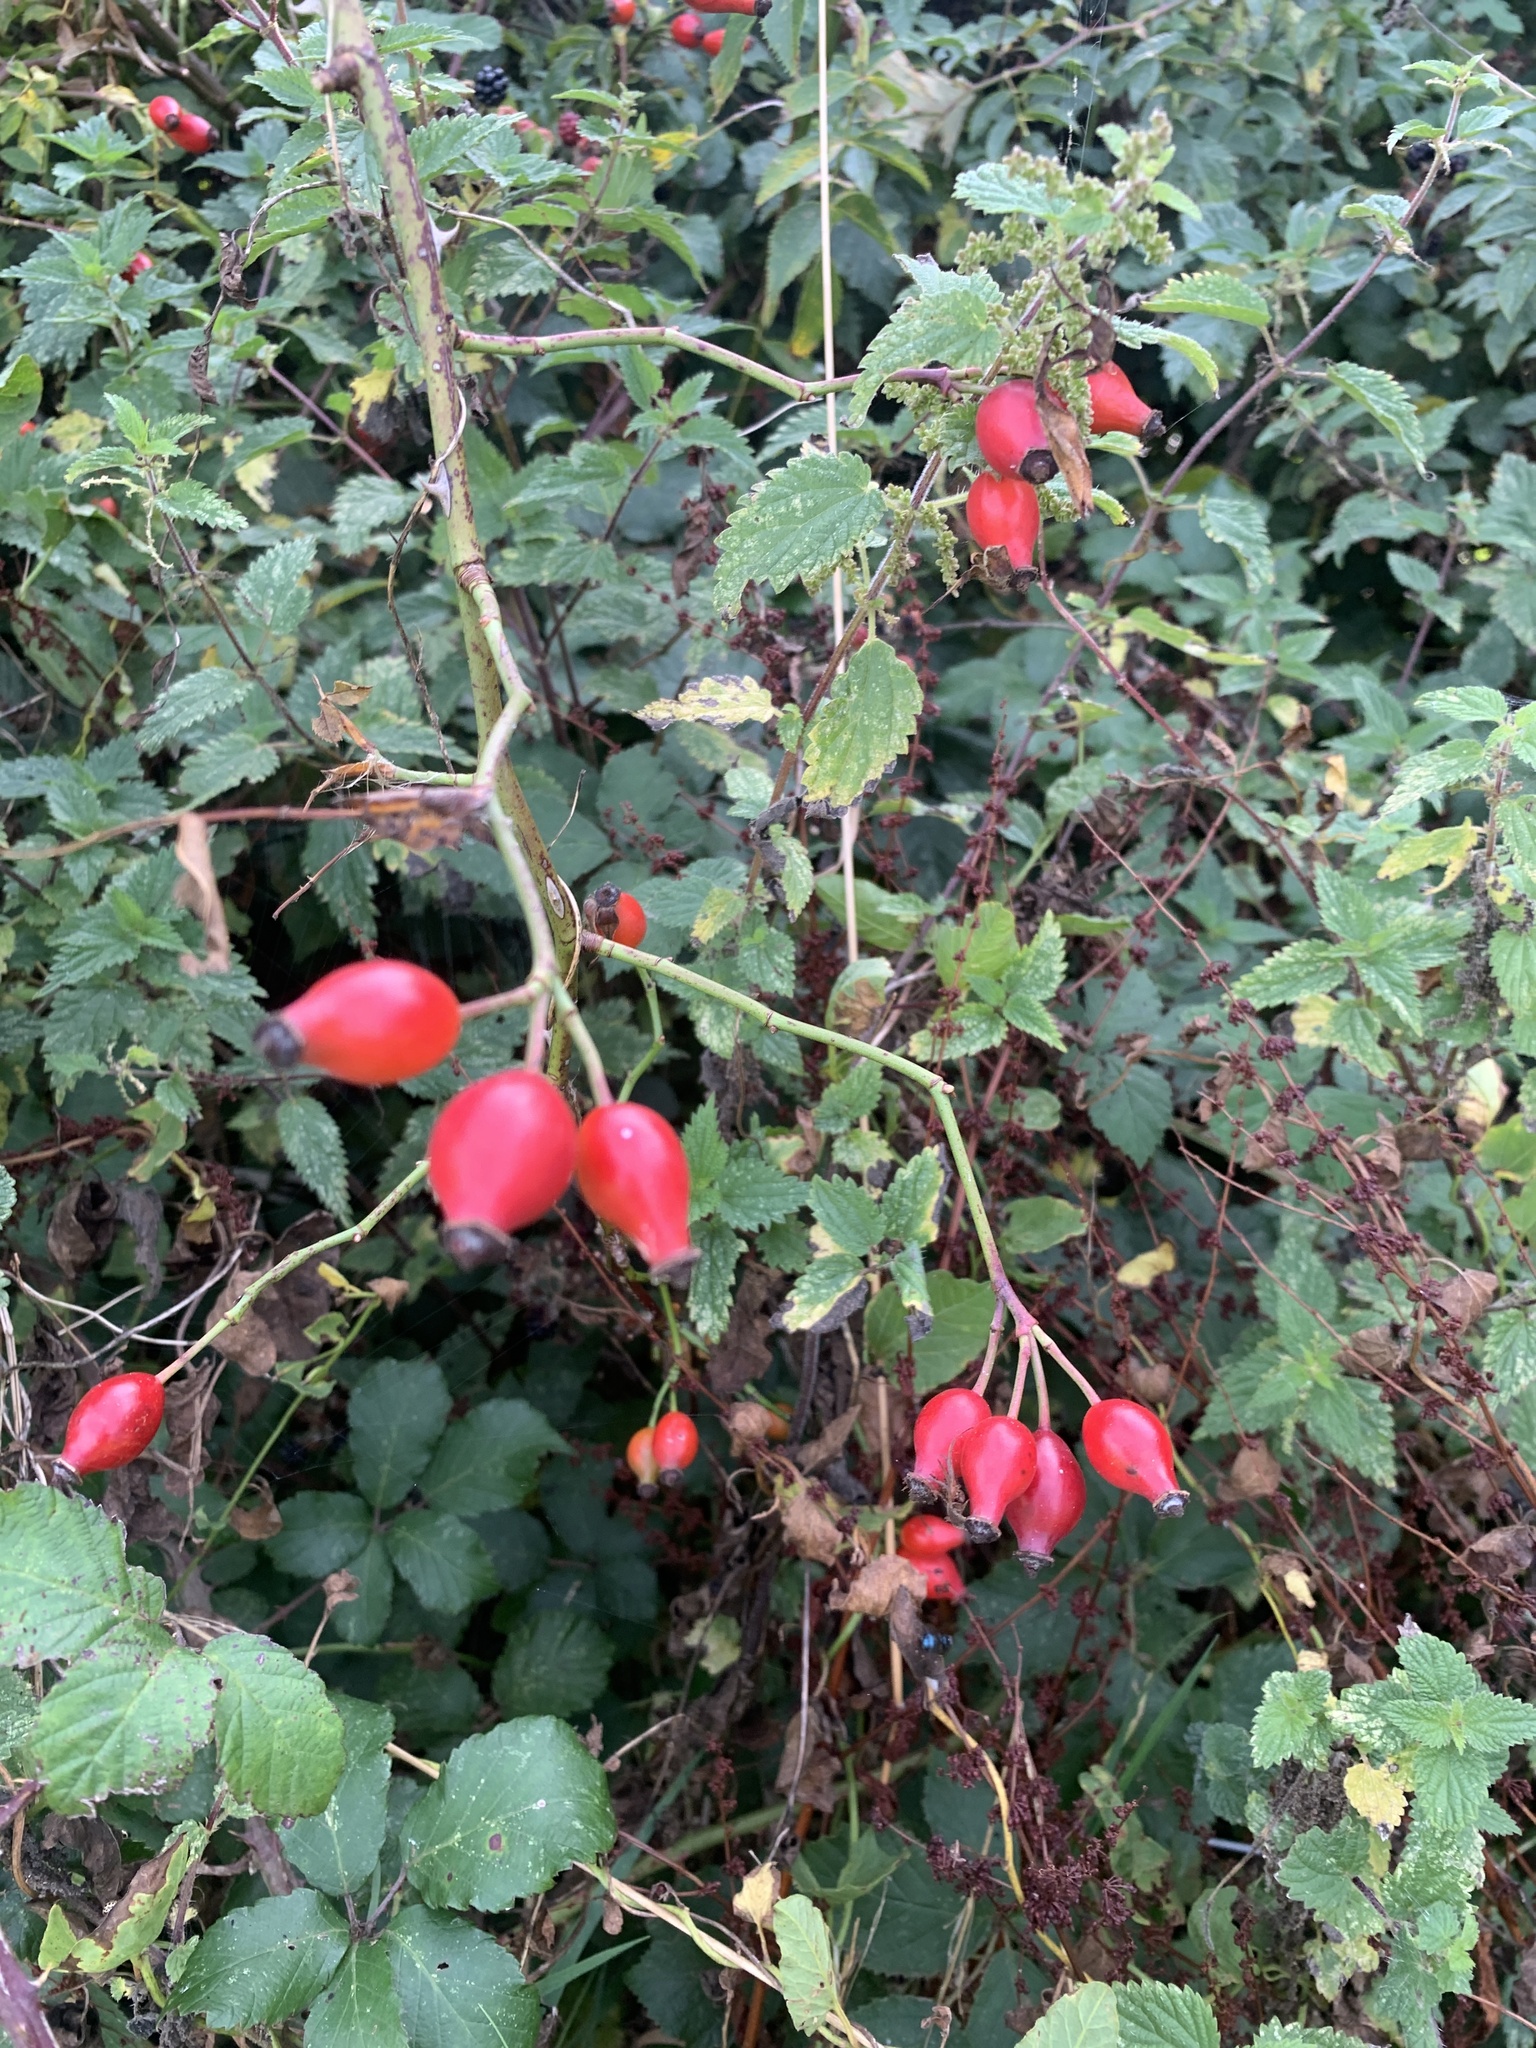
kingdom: Plantae
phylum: Tracheophyta
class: Magnoliopsida
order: Rosales
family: Rosaceae
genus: Rosa
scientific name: Rosa canina
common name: Dog rose
